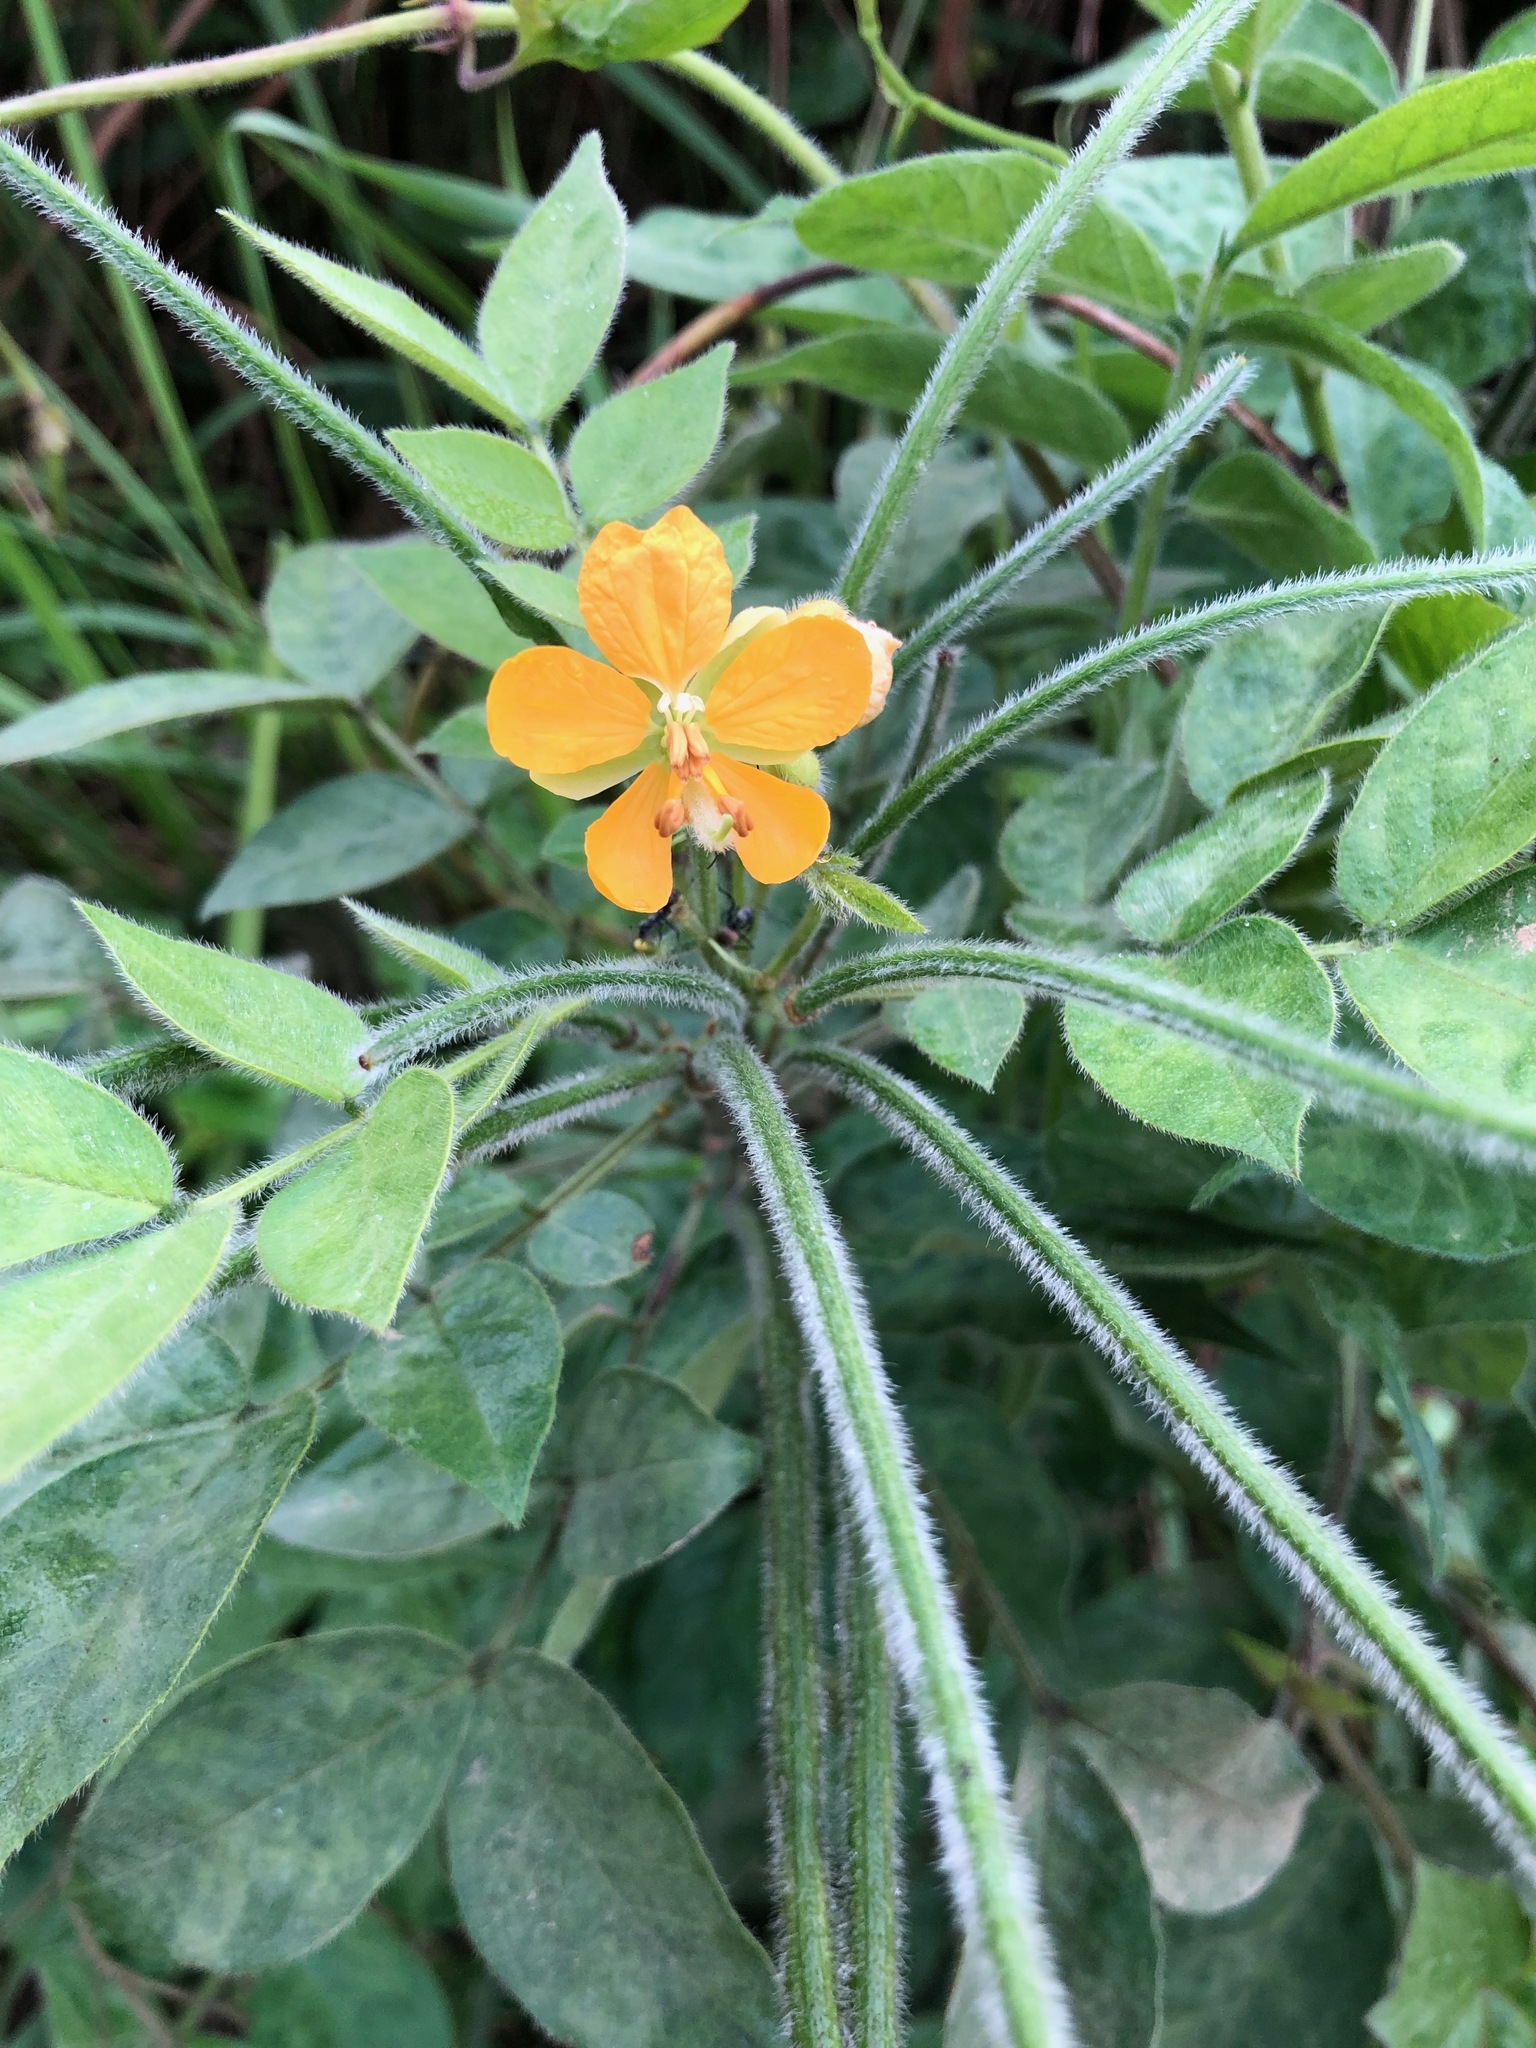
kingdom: Plantae
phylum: Tracheophyta
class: Magnoliopsida
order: Fabales
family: Fabaceae
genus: Senna
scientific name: Senna hirsuta
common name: Woolly senna
